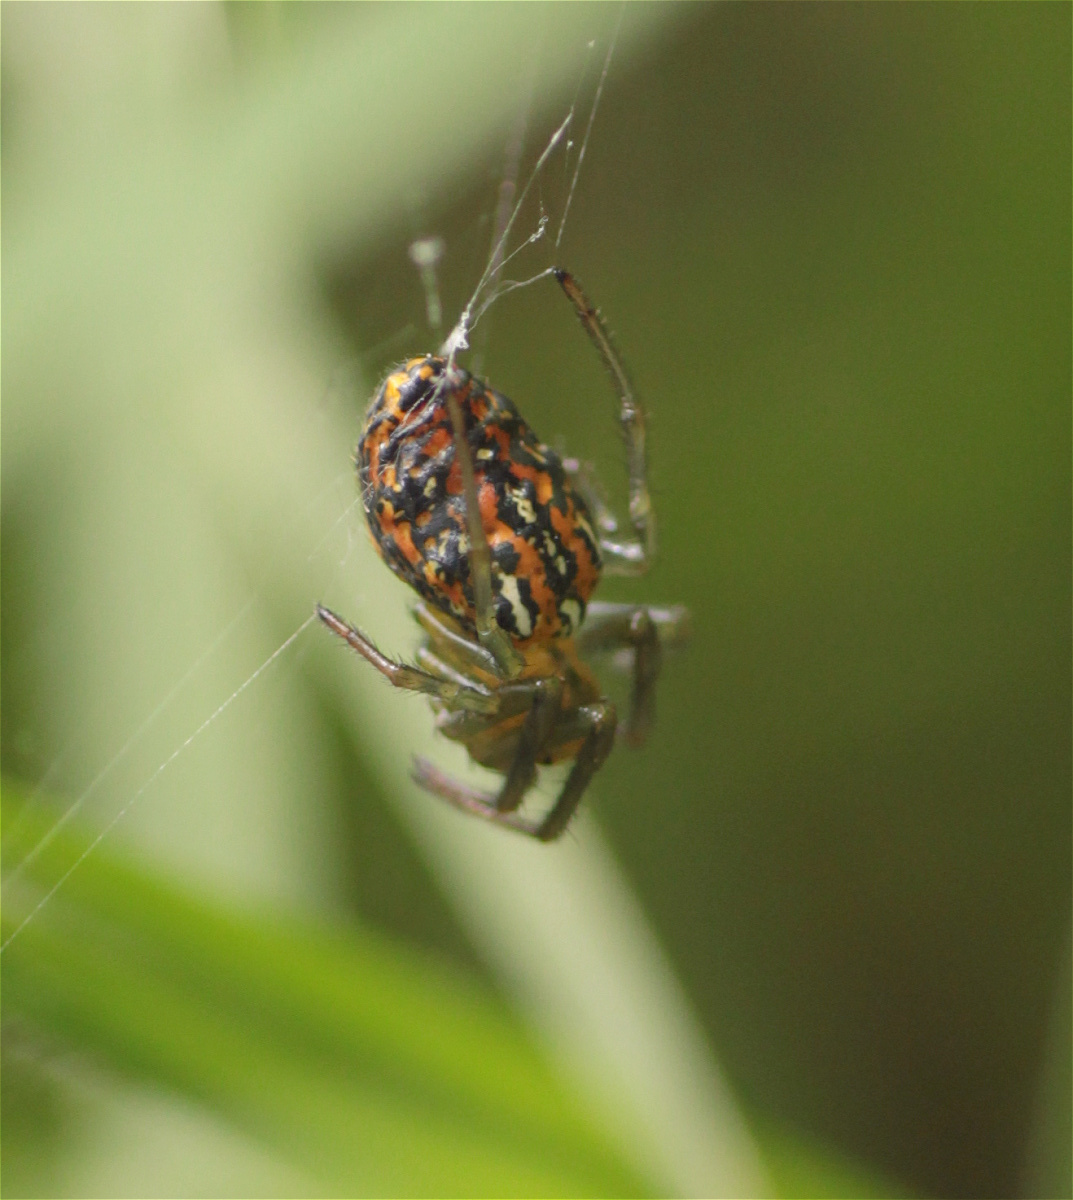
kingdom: Animalia
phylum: Arthropoda
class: Arachnida
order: Araneae
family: Araneidae
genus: Alpaida
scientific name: Alpaida variabilis
